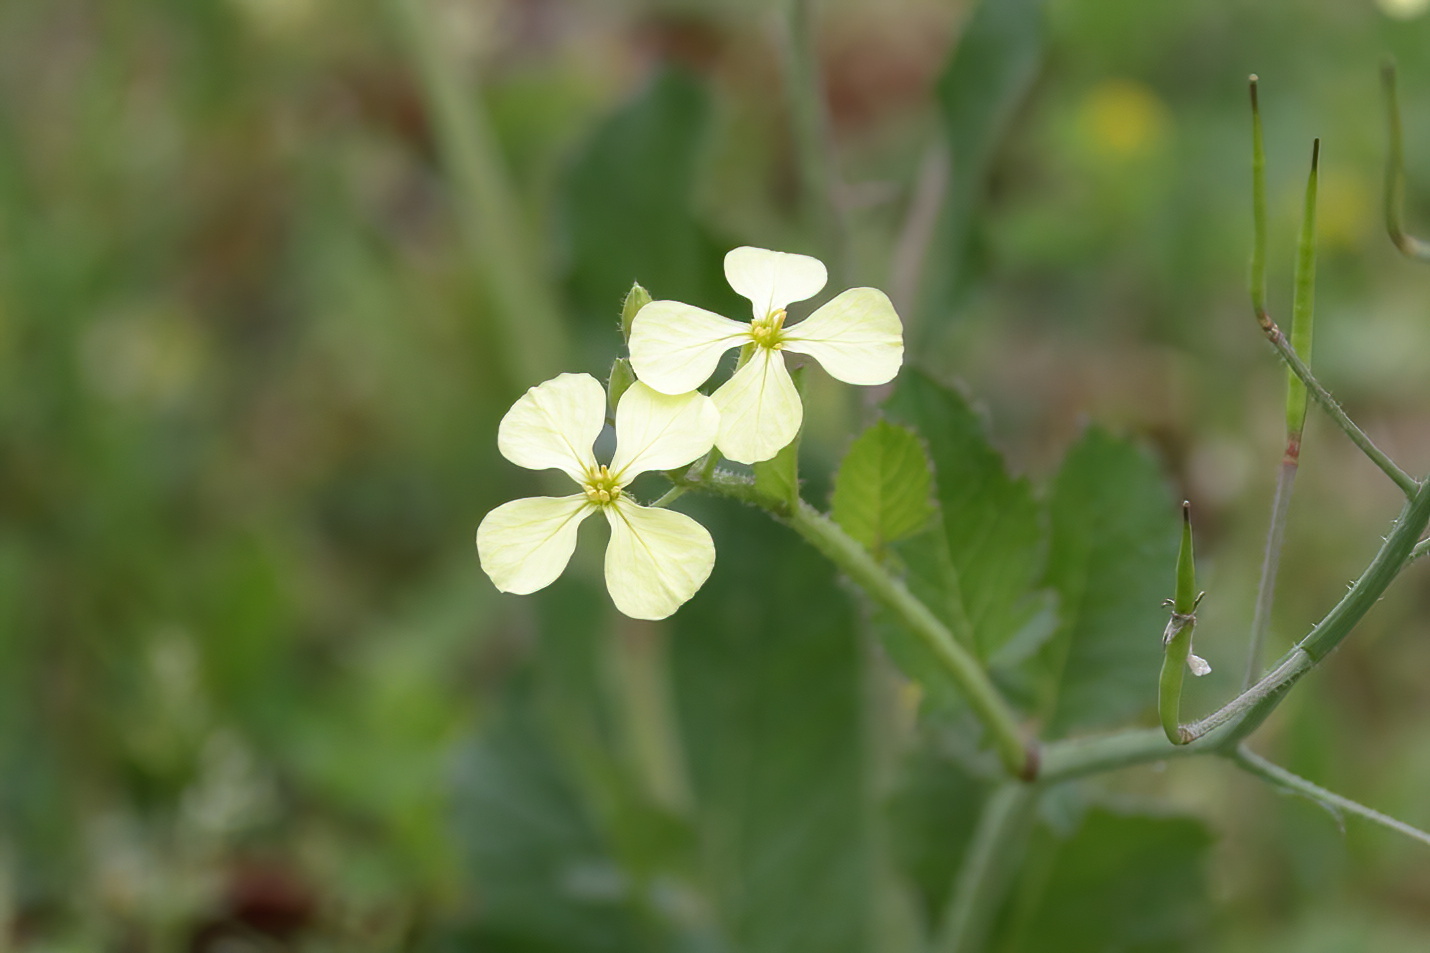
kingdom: Plantae
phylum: Tracheophyta
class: Magnoliopsida
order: Brassicales
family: Brassicaceae
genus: Raphanus
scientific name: Raphanus raphanistrum
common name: Wild radish
